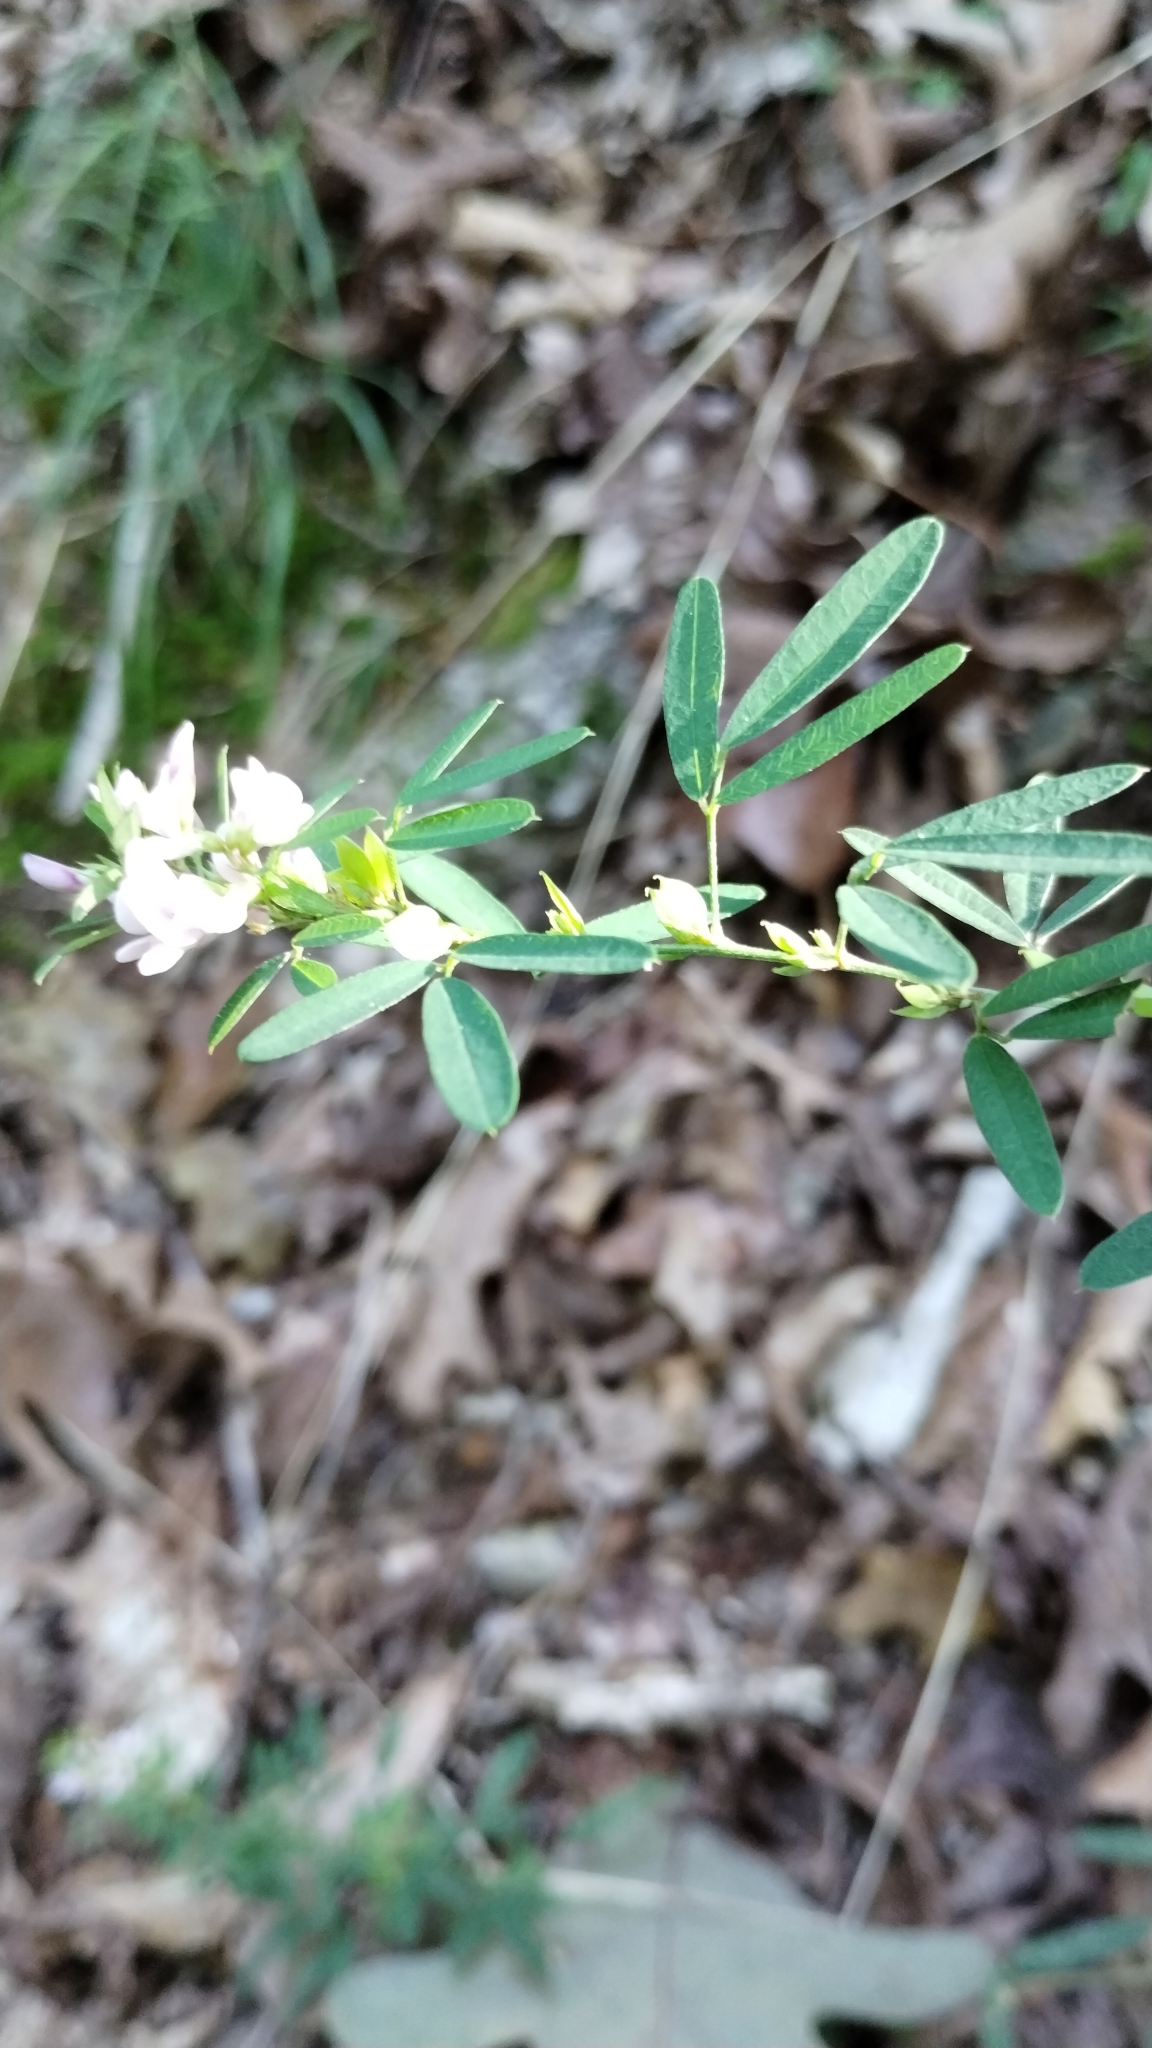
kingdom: Plantae
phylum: Tracheophyta
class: Magnoliopsida
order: Fabales
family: Fabaceae
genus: Lespedeza
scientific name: Lespedeza virginica
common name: Slender bush-clover
